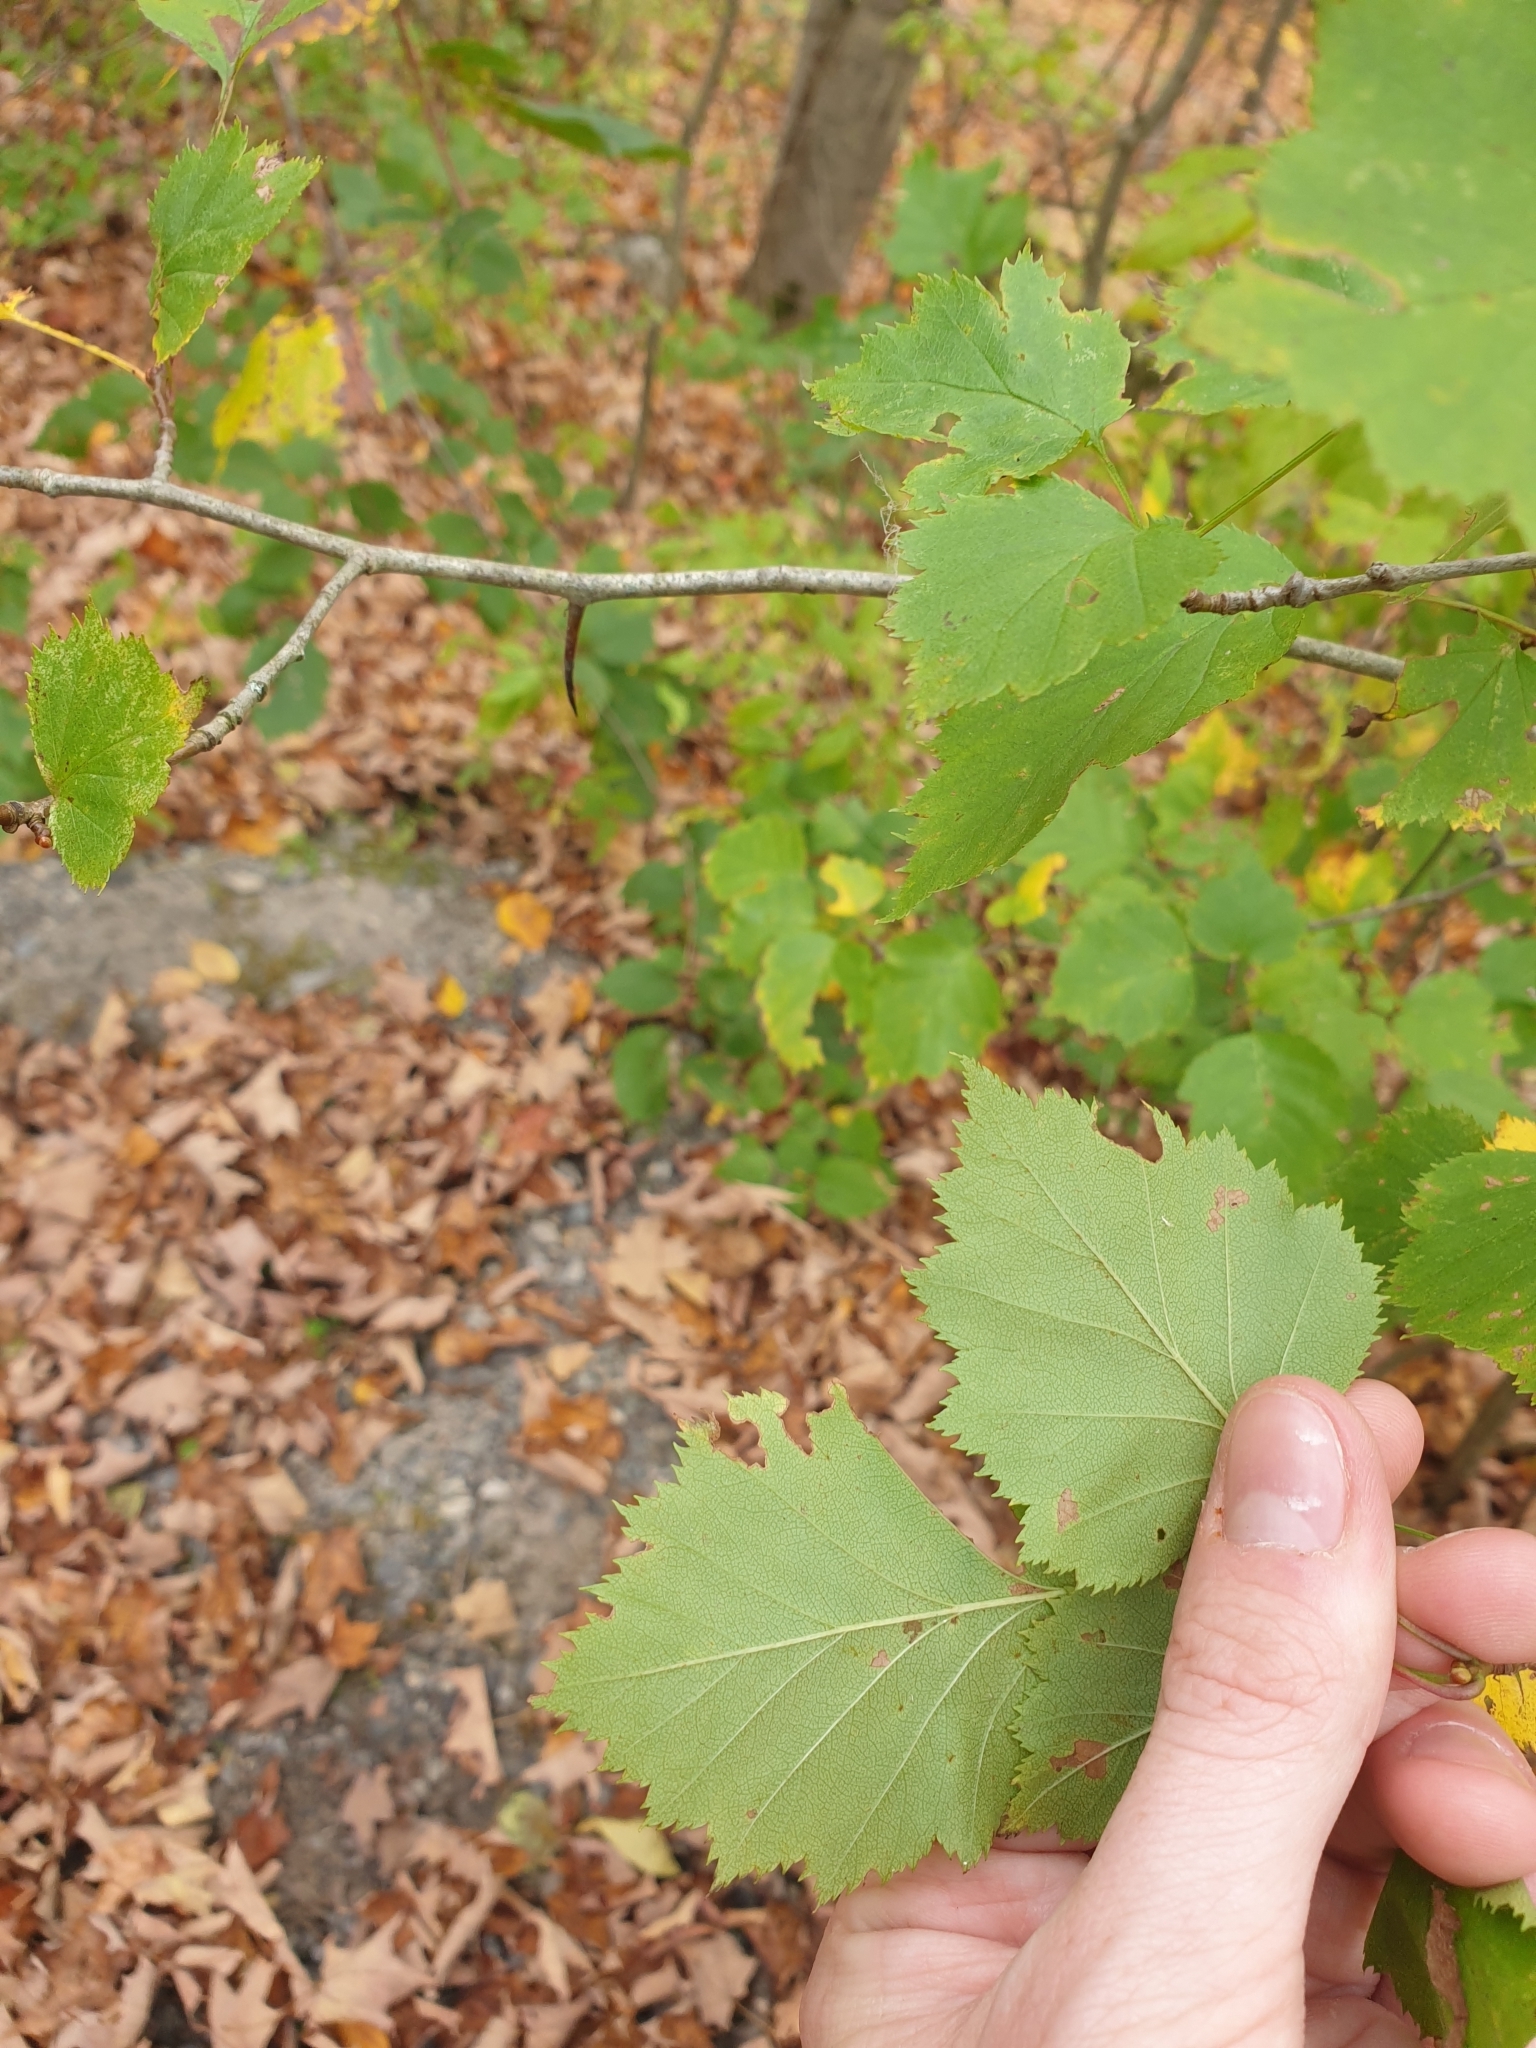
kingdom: Plantae
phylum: Tracheophyta
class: Magnoliopsida
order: Rosales
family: Rosaceae
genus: Crataegus
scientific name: Crataegus
